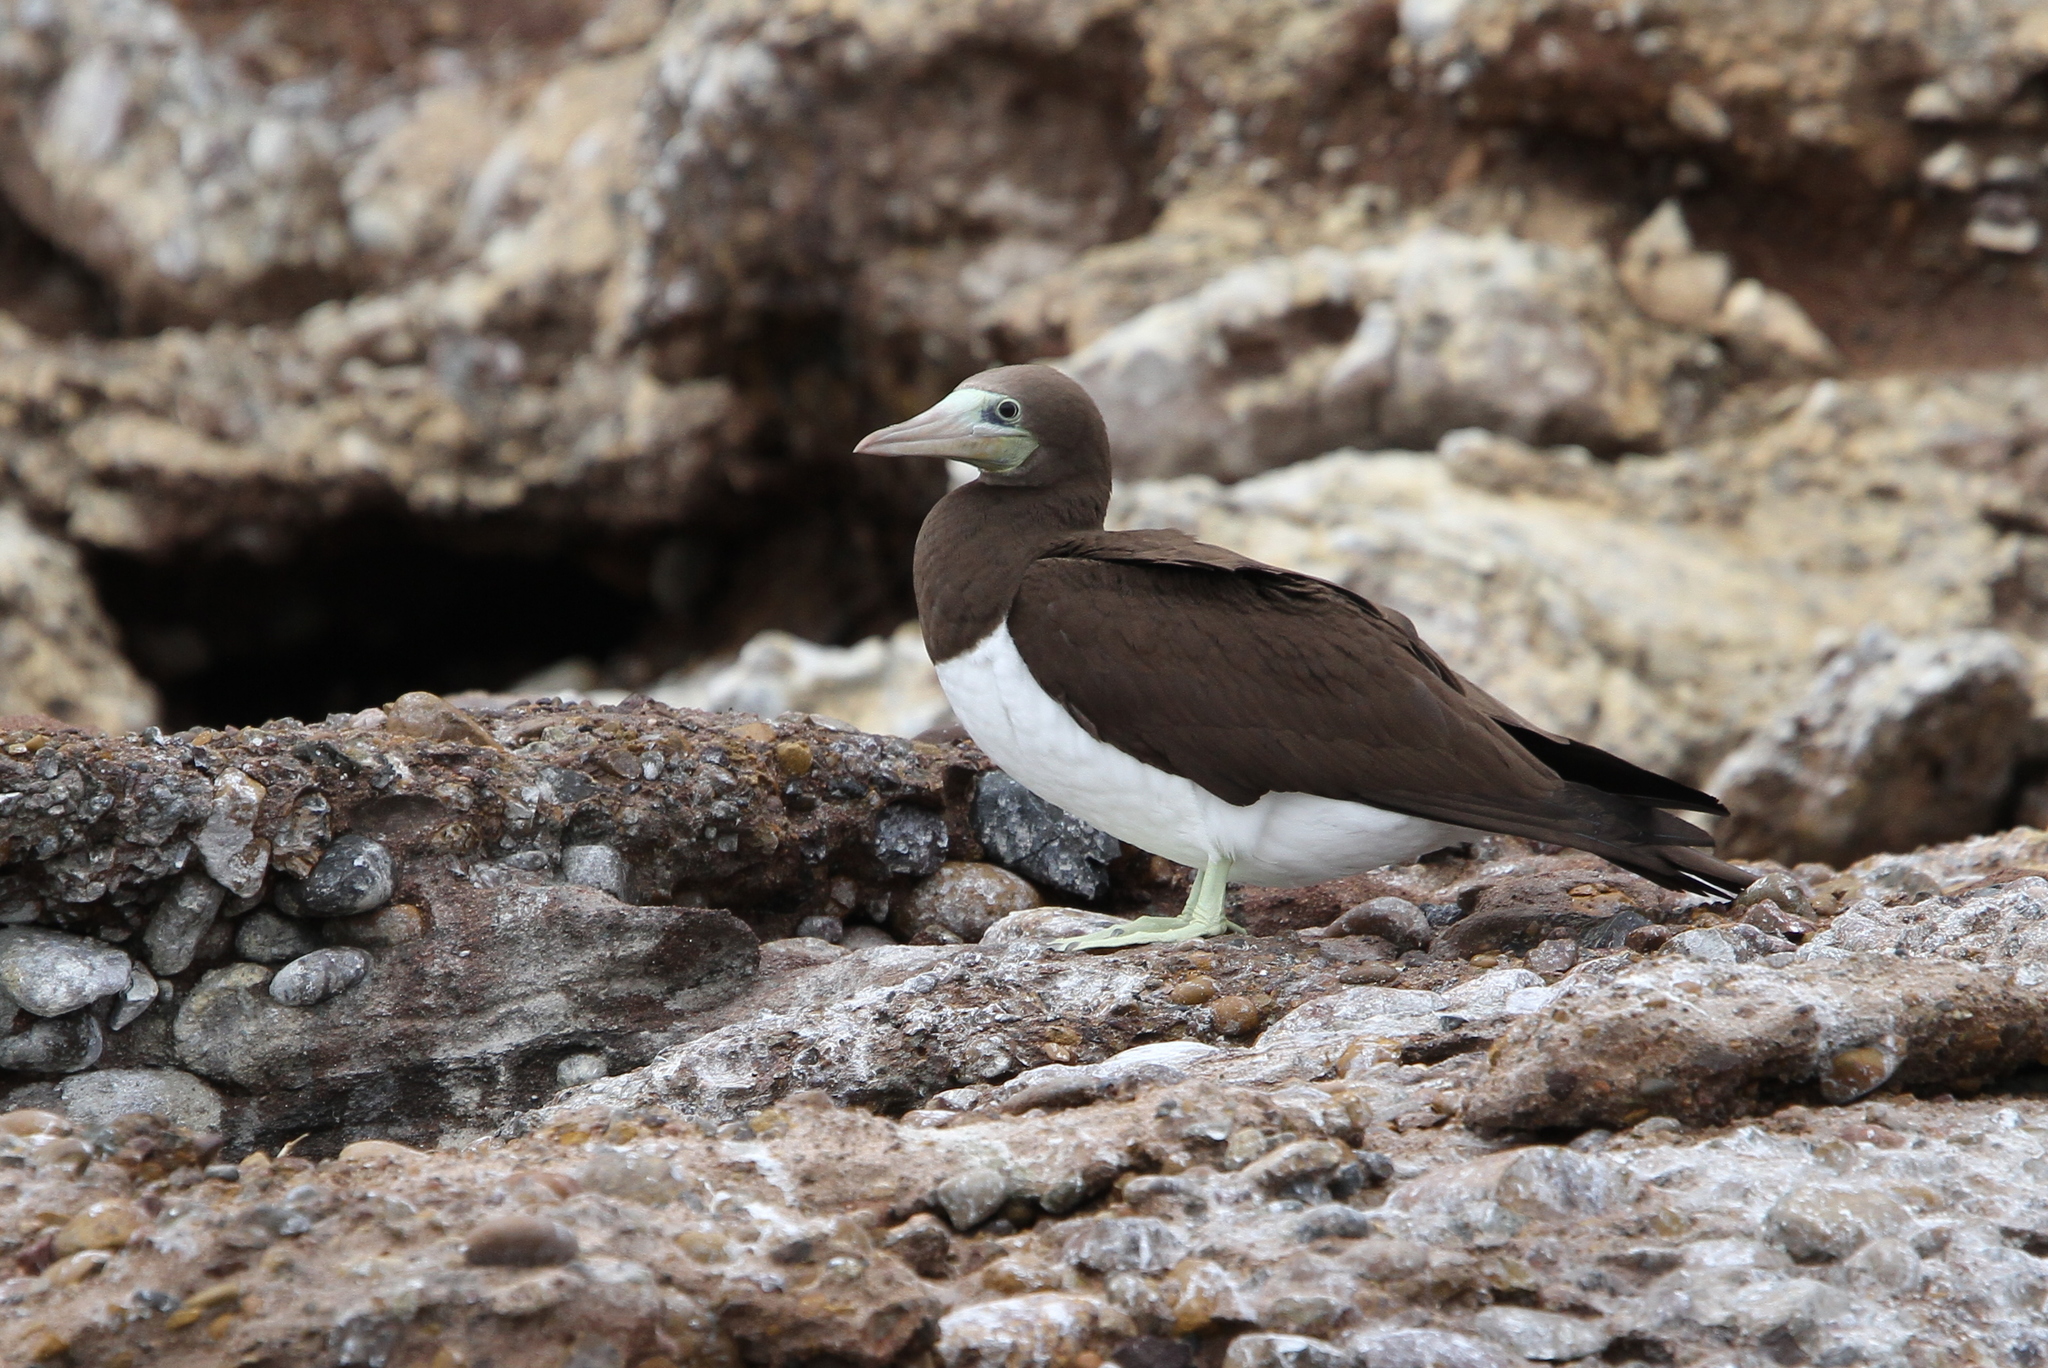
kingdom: Animalia
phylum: Chordata
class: Aves
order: Suliformes
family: Sulidae
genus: Sula
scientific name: Sula leucogaster
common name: Brown booby
